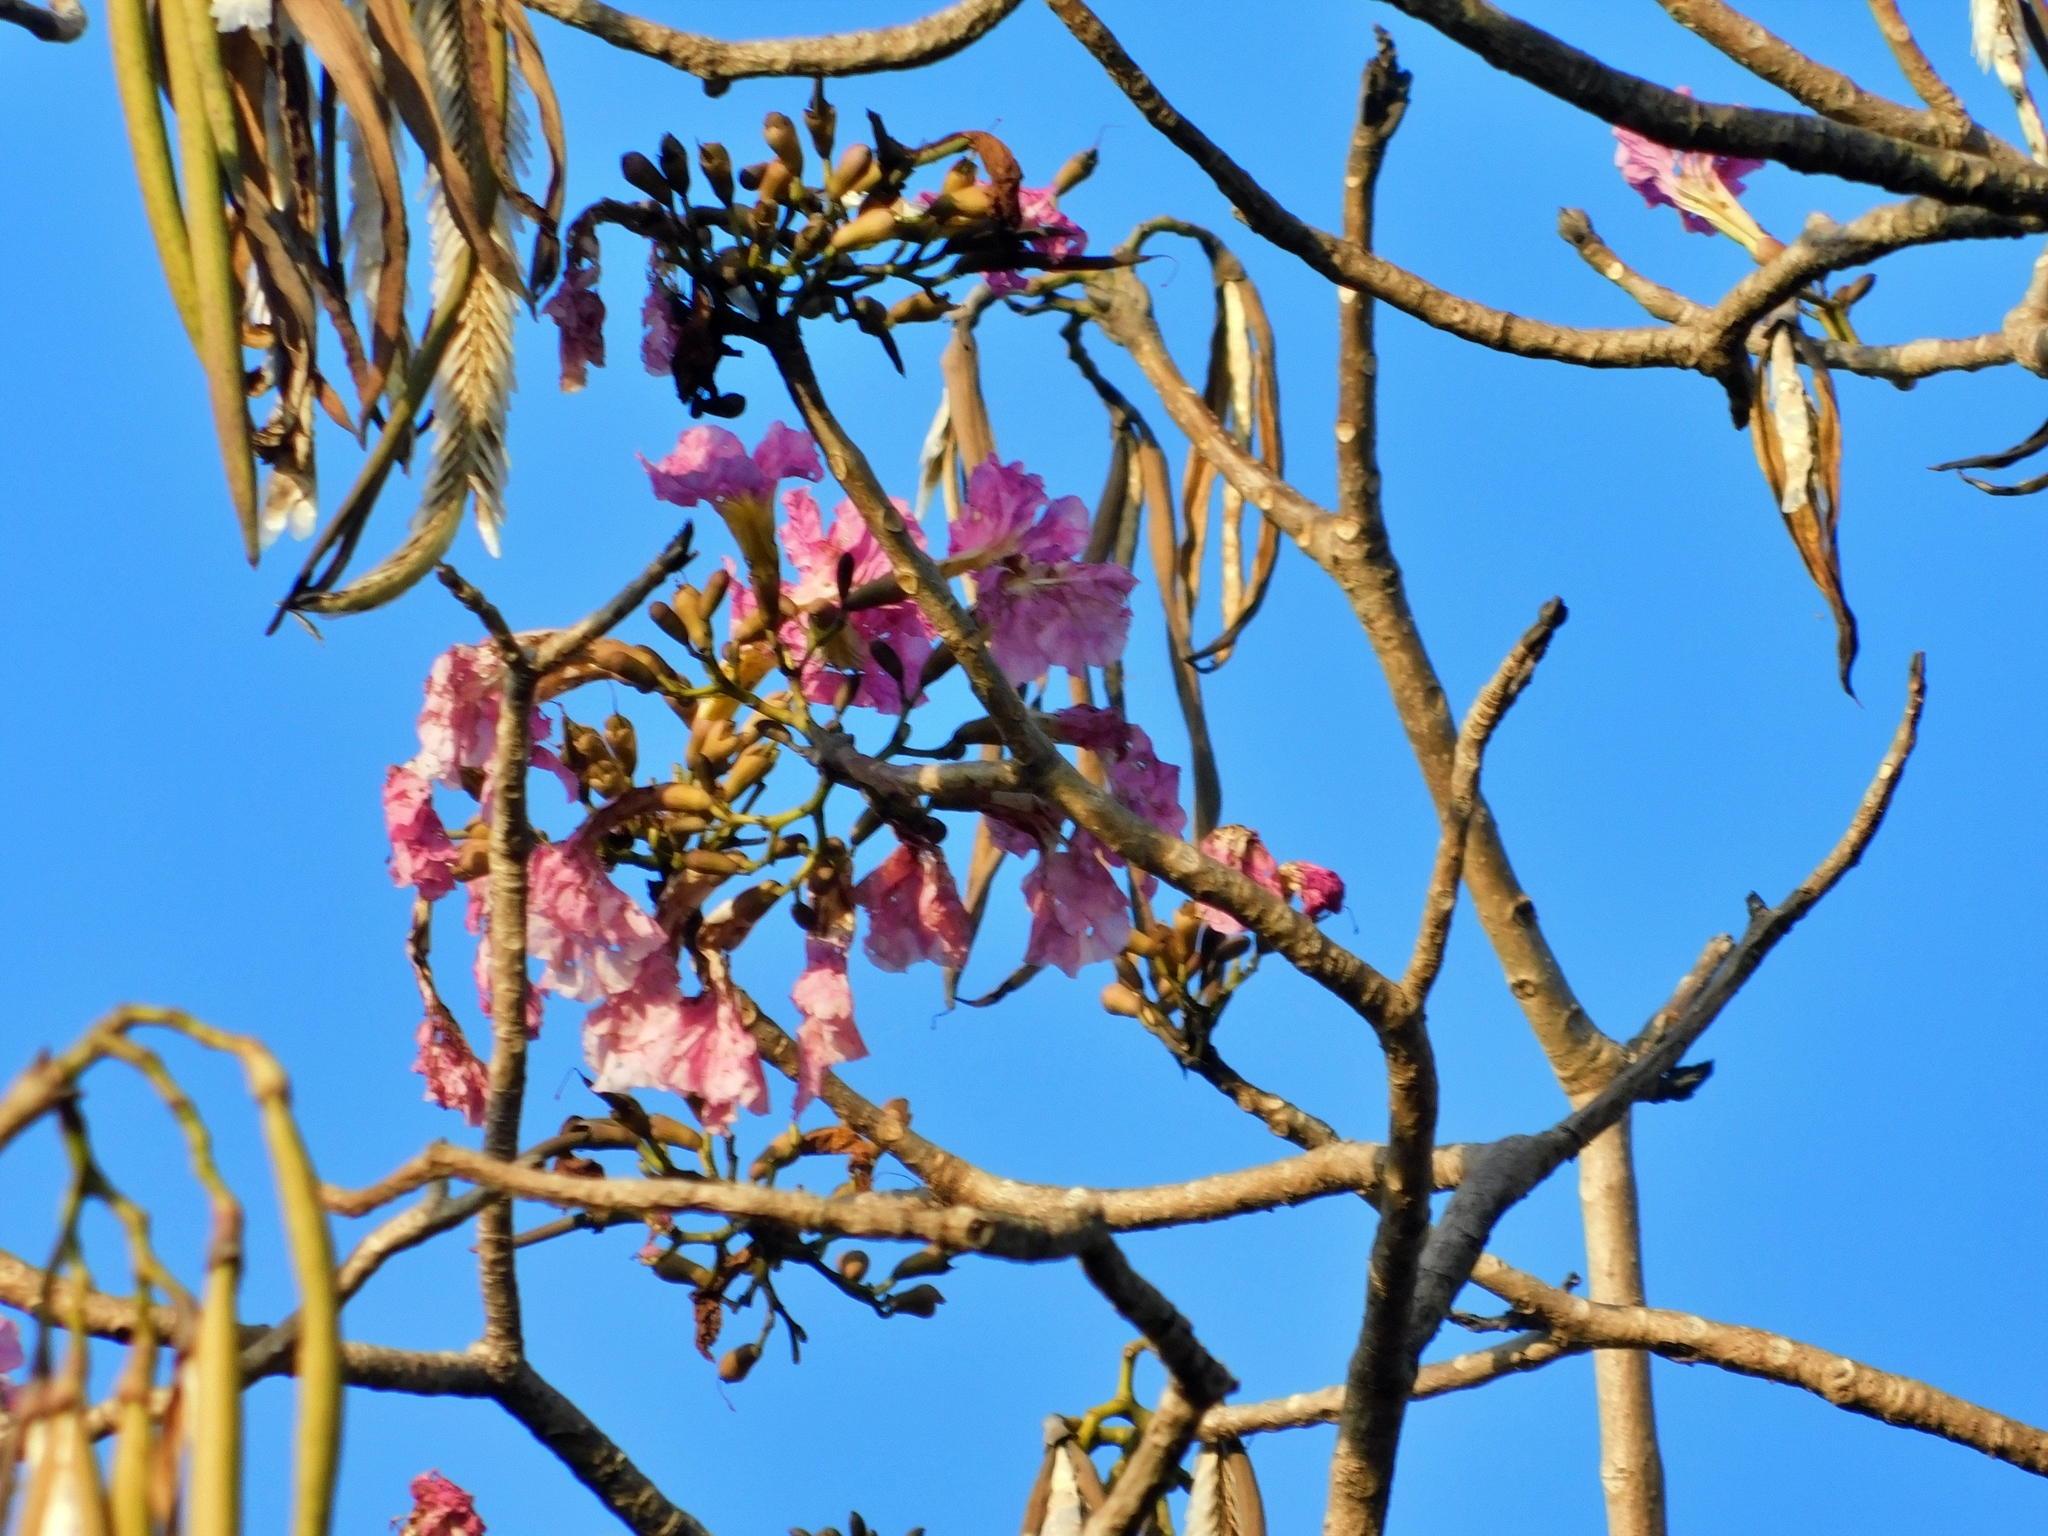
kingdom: Plantae
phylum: Tracheophyta
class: Magnoliopsida
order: Lamiales
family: Bignoniaceae
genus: Tabebuia
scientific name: Tabebuia rosea
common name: Pink poui
